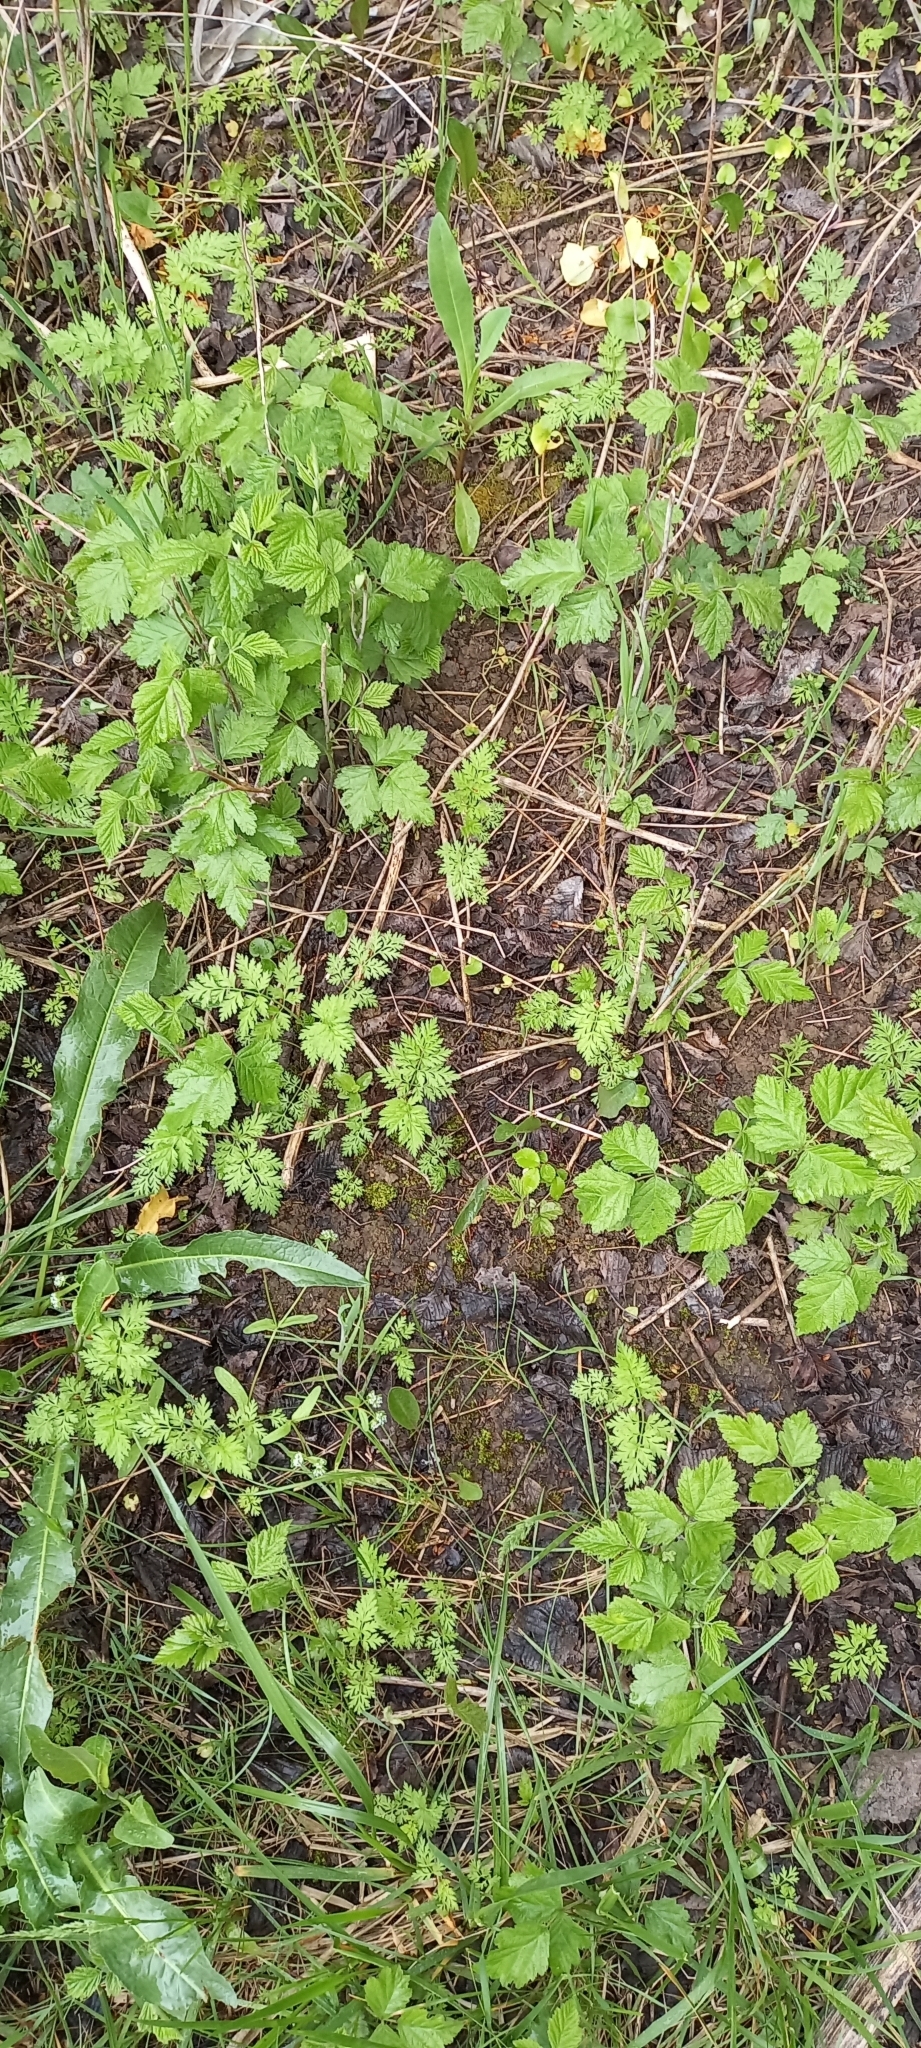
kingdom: Plantae
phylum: Tracheophyta
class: Magnoliopsida
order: Rosales
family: Rosaceae
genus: Rubus
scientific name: Rubus caesius
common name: Dewberry
